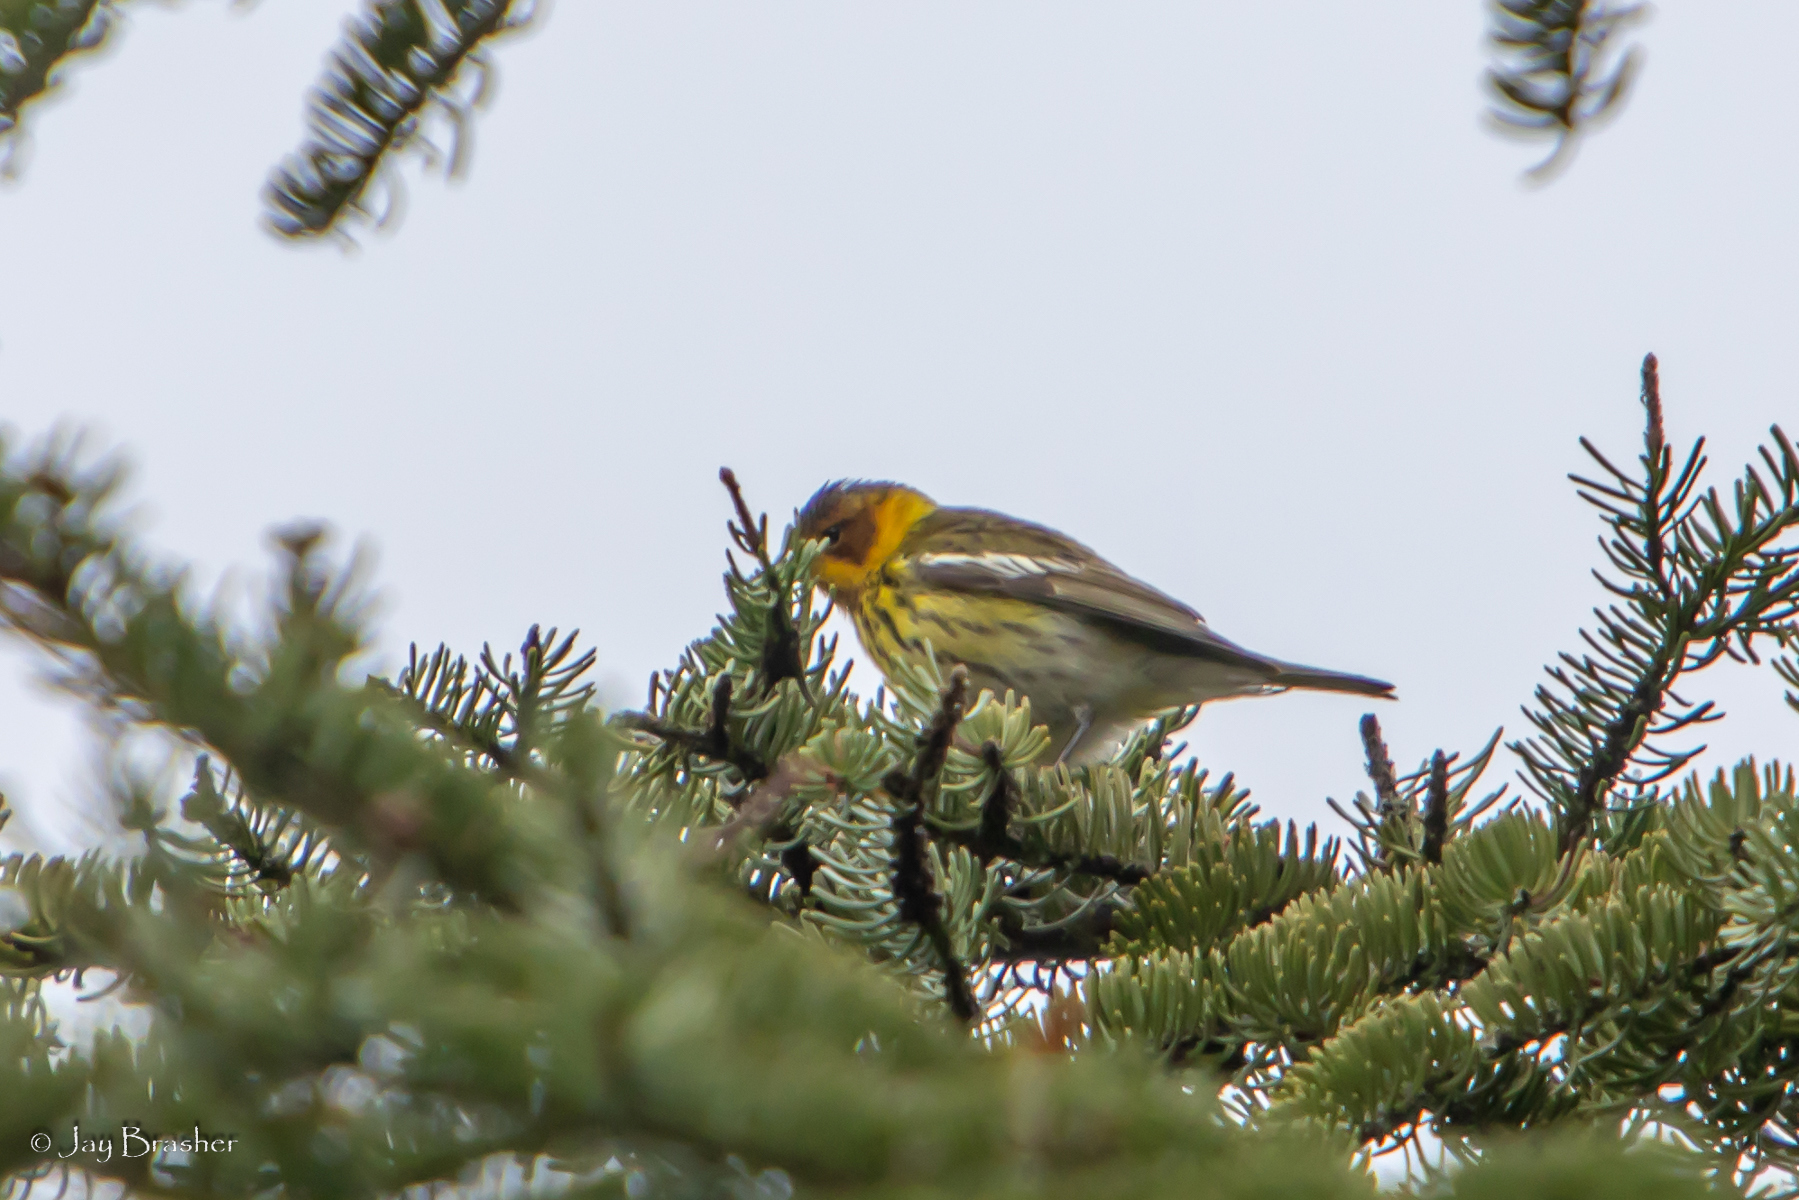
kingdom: Animalia
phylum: Chordata
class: Aves
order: Passeriformes
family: Parulidae
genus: Setophaga
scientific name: Setophaga tigrina
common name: Cape may warbler
